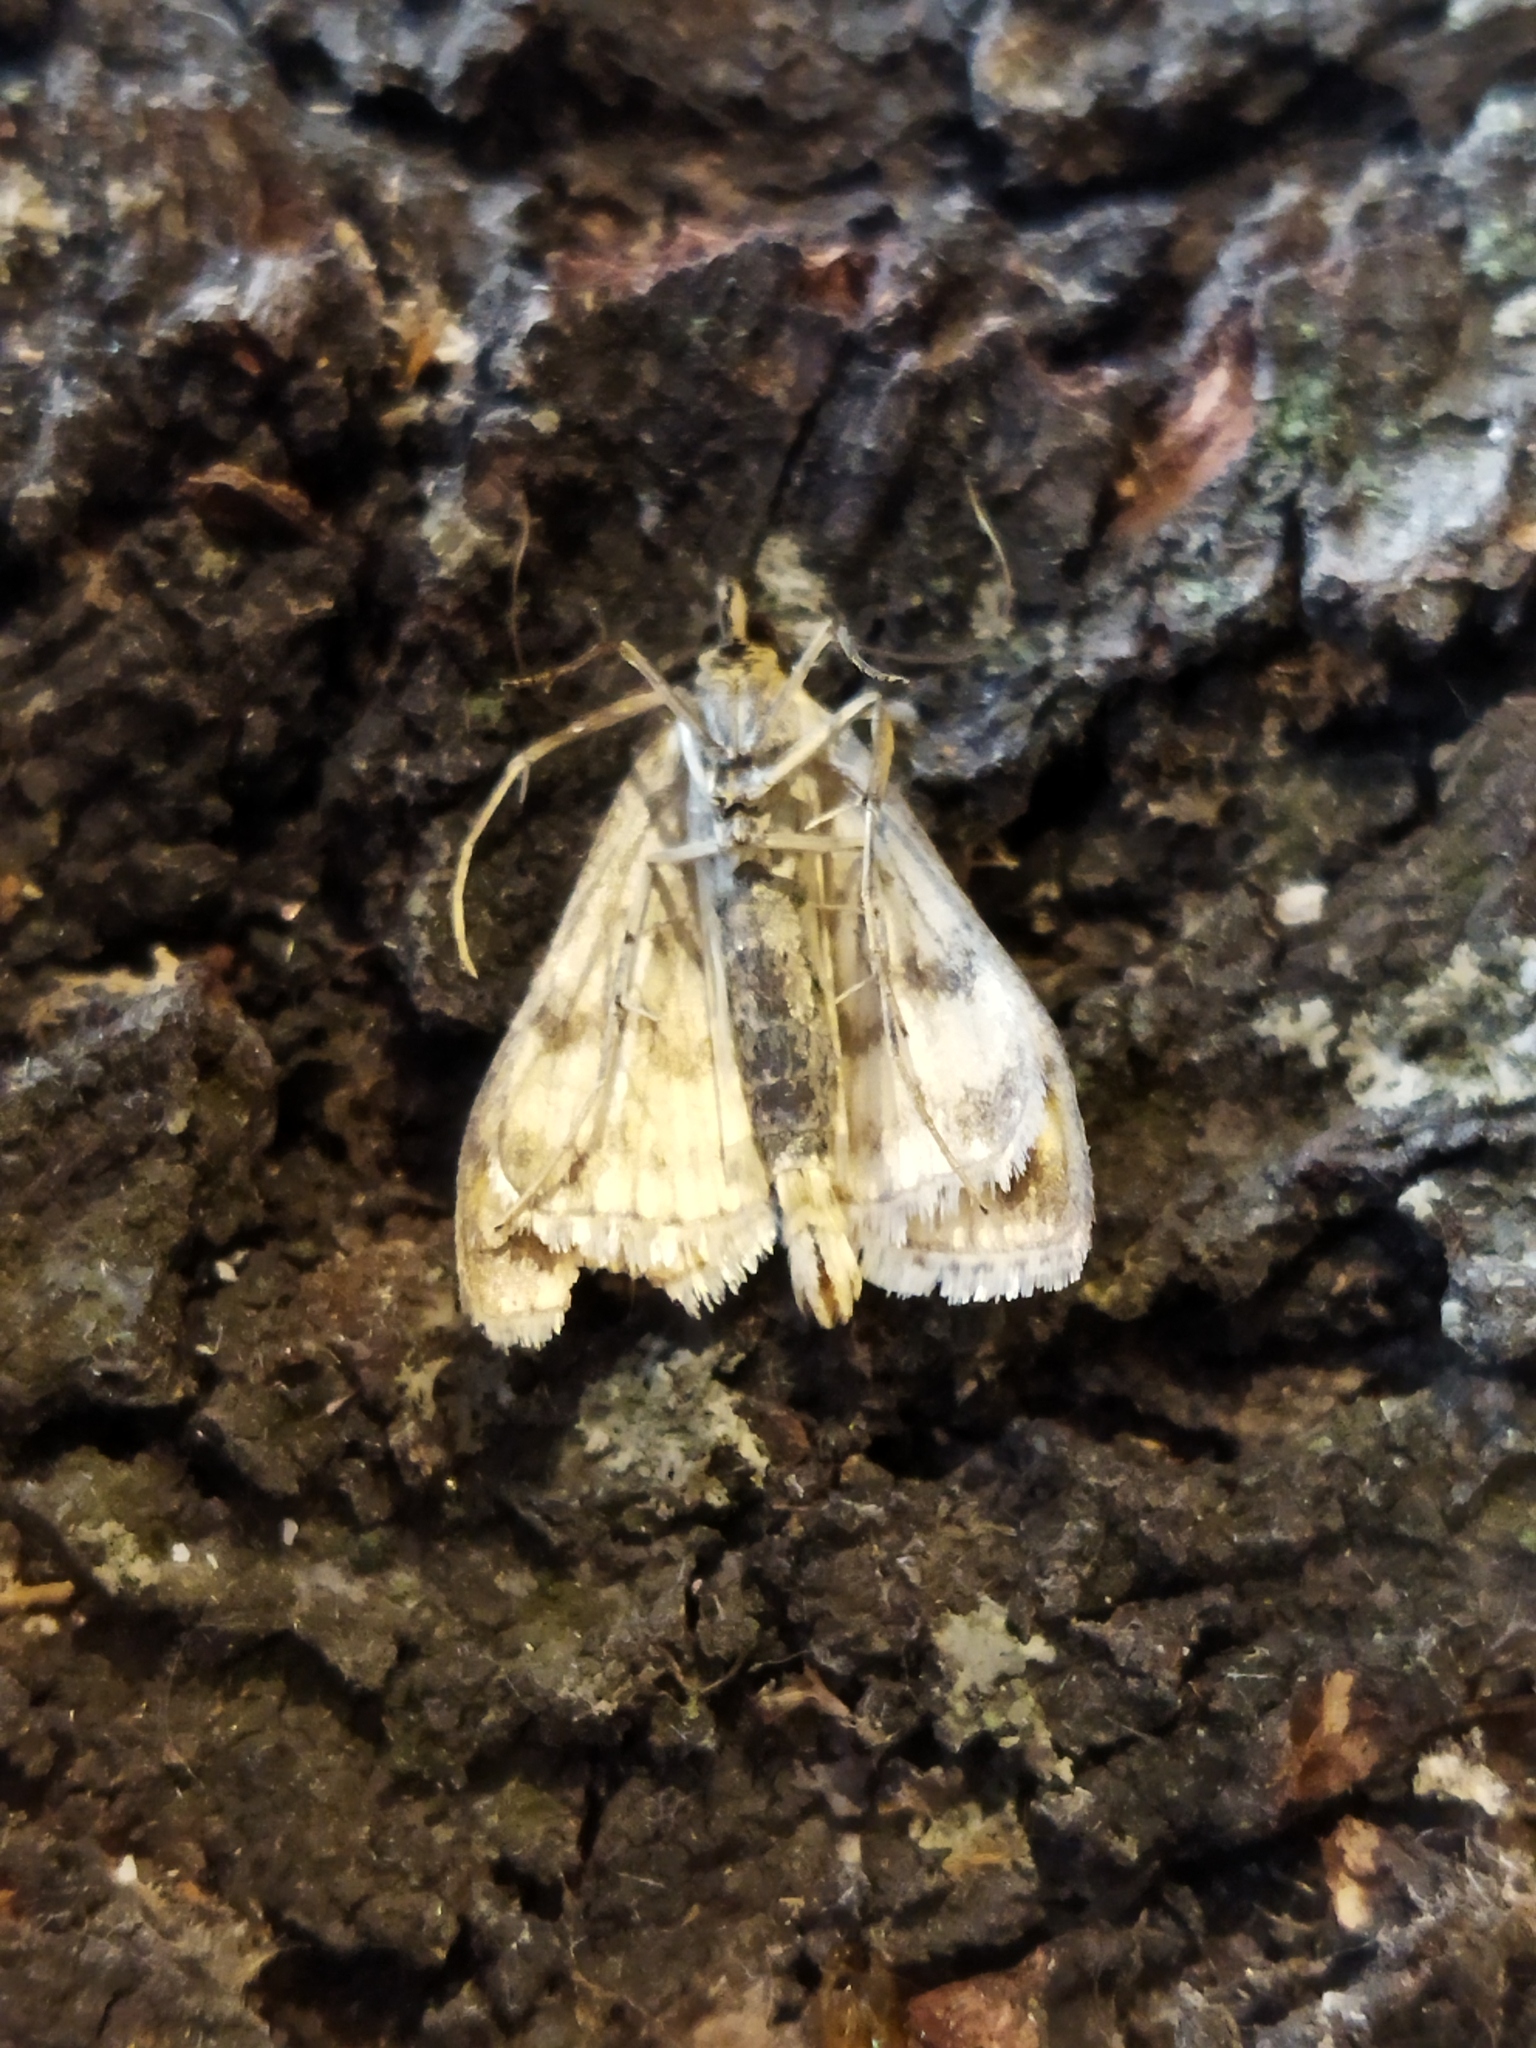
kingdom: Animalia
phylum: Arthropoda
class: Insecta
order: Lepidoptera
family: Crambidae
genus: Sitochroa
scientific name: Sitochroa verticalis
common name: Lesser pearl
